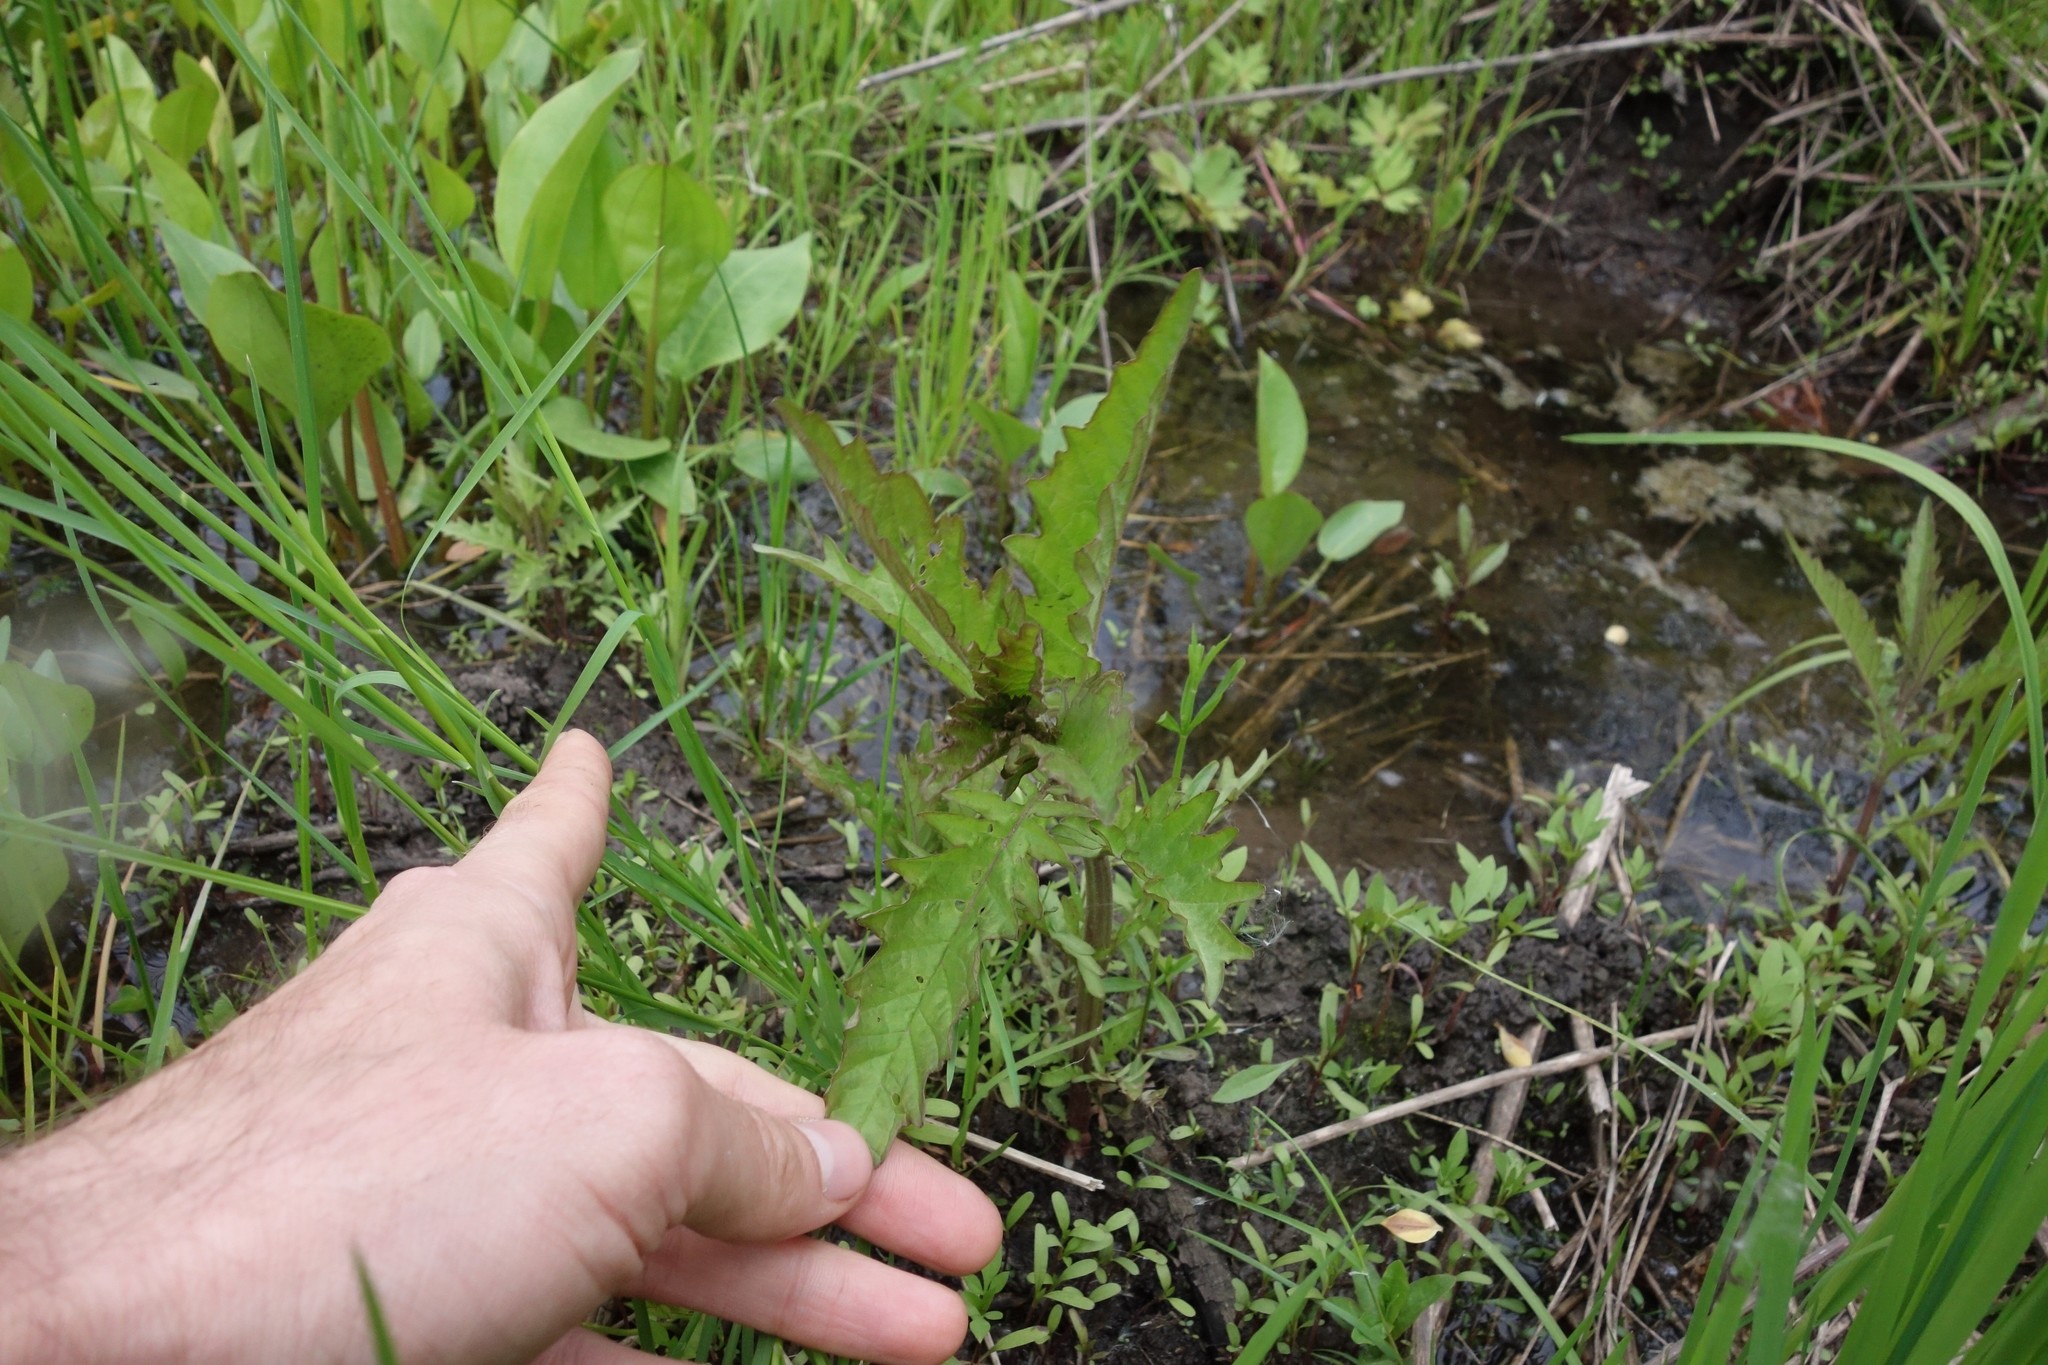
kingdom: Plantae
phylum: Tracheophyta
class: Magnoliopsida
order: Lamiales
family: Lamiaceae
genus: Lycopus
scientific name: Lycopus europaeus
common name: European bugleweed
